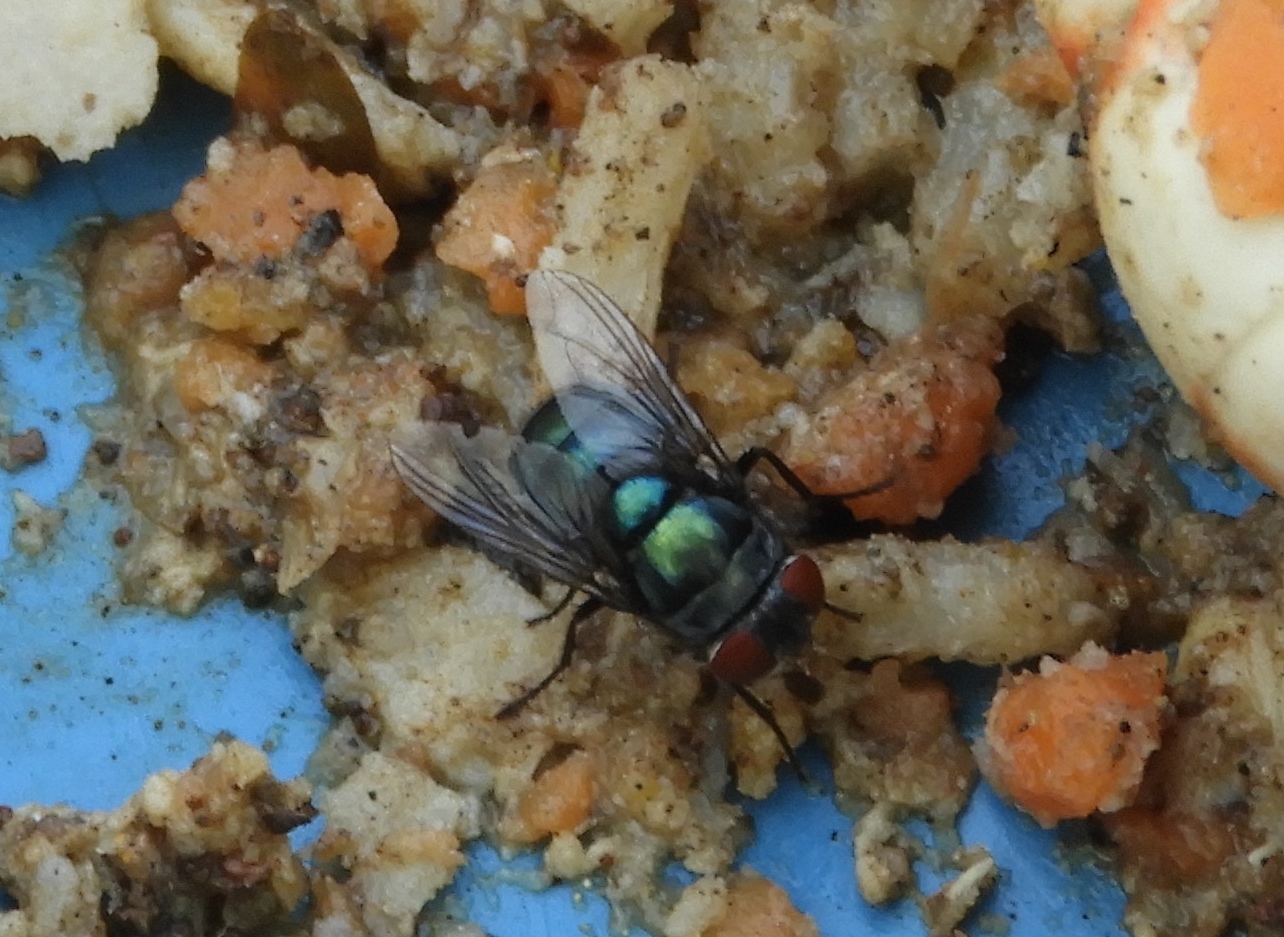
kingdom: Animalia
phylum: Arthropoda
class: Insecta
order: Diptera
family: Calliphoridae
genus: Chrysomya
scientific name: Chrysomya megacephala
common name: Blow fly
